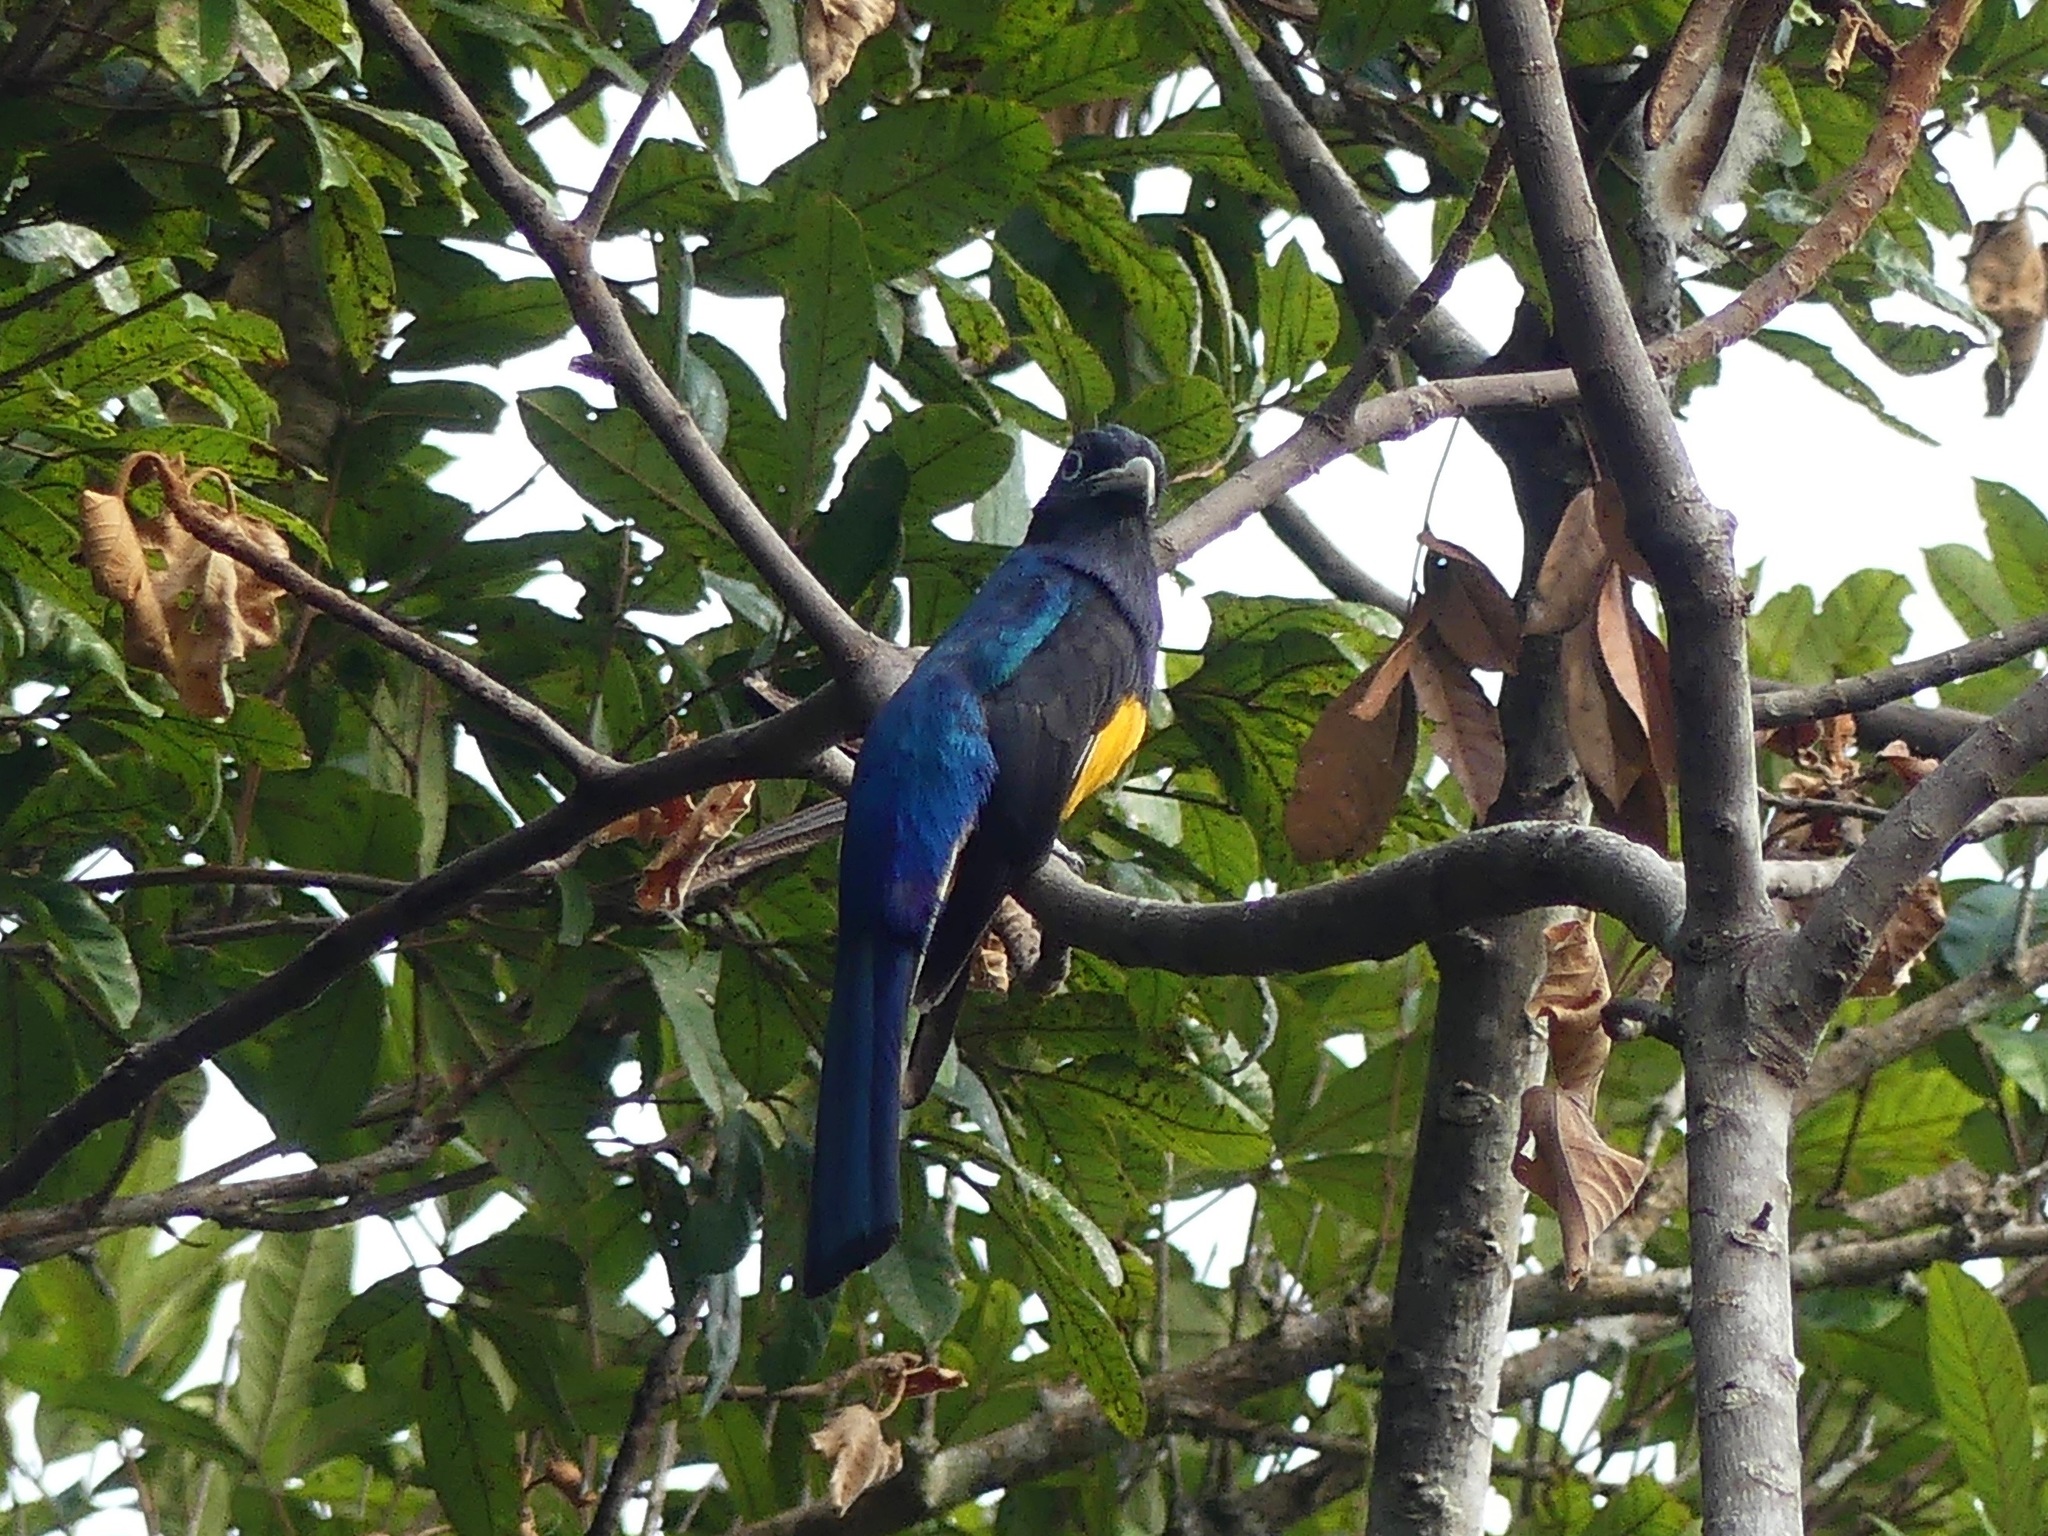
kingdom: Animalia
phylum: Chordata
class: Aves
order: Trogoniformes
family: Trogonidae
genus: Trogon
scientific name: Trogon viridis
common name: Green-backed trogon
